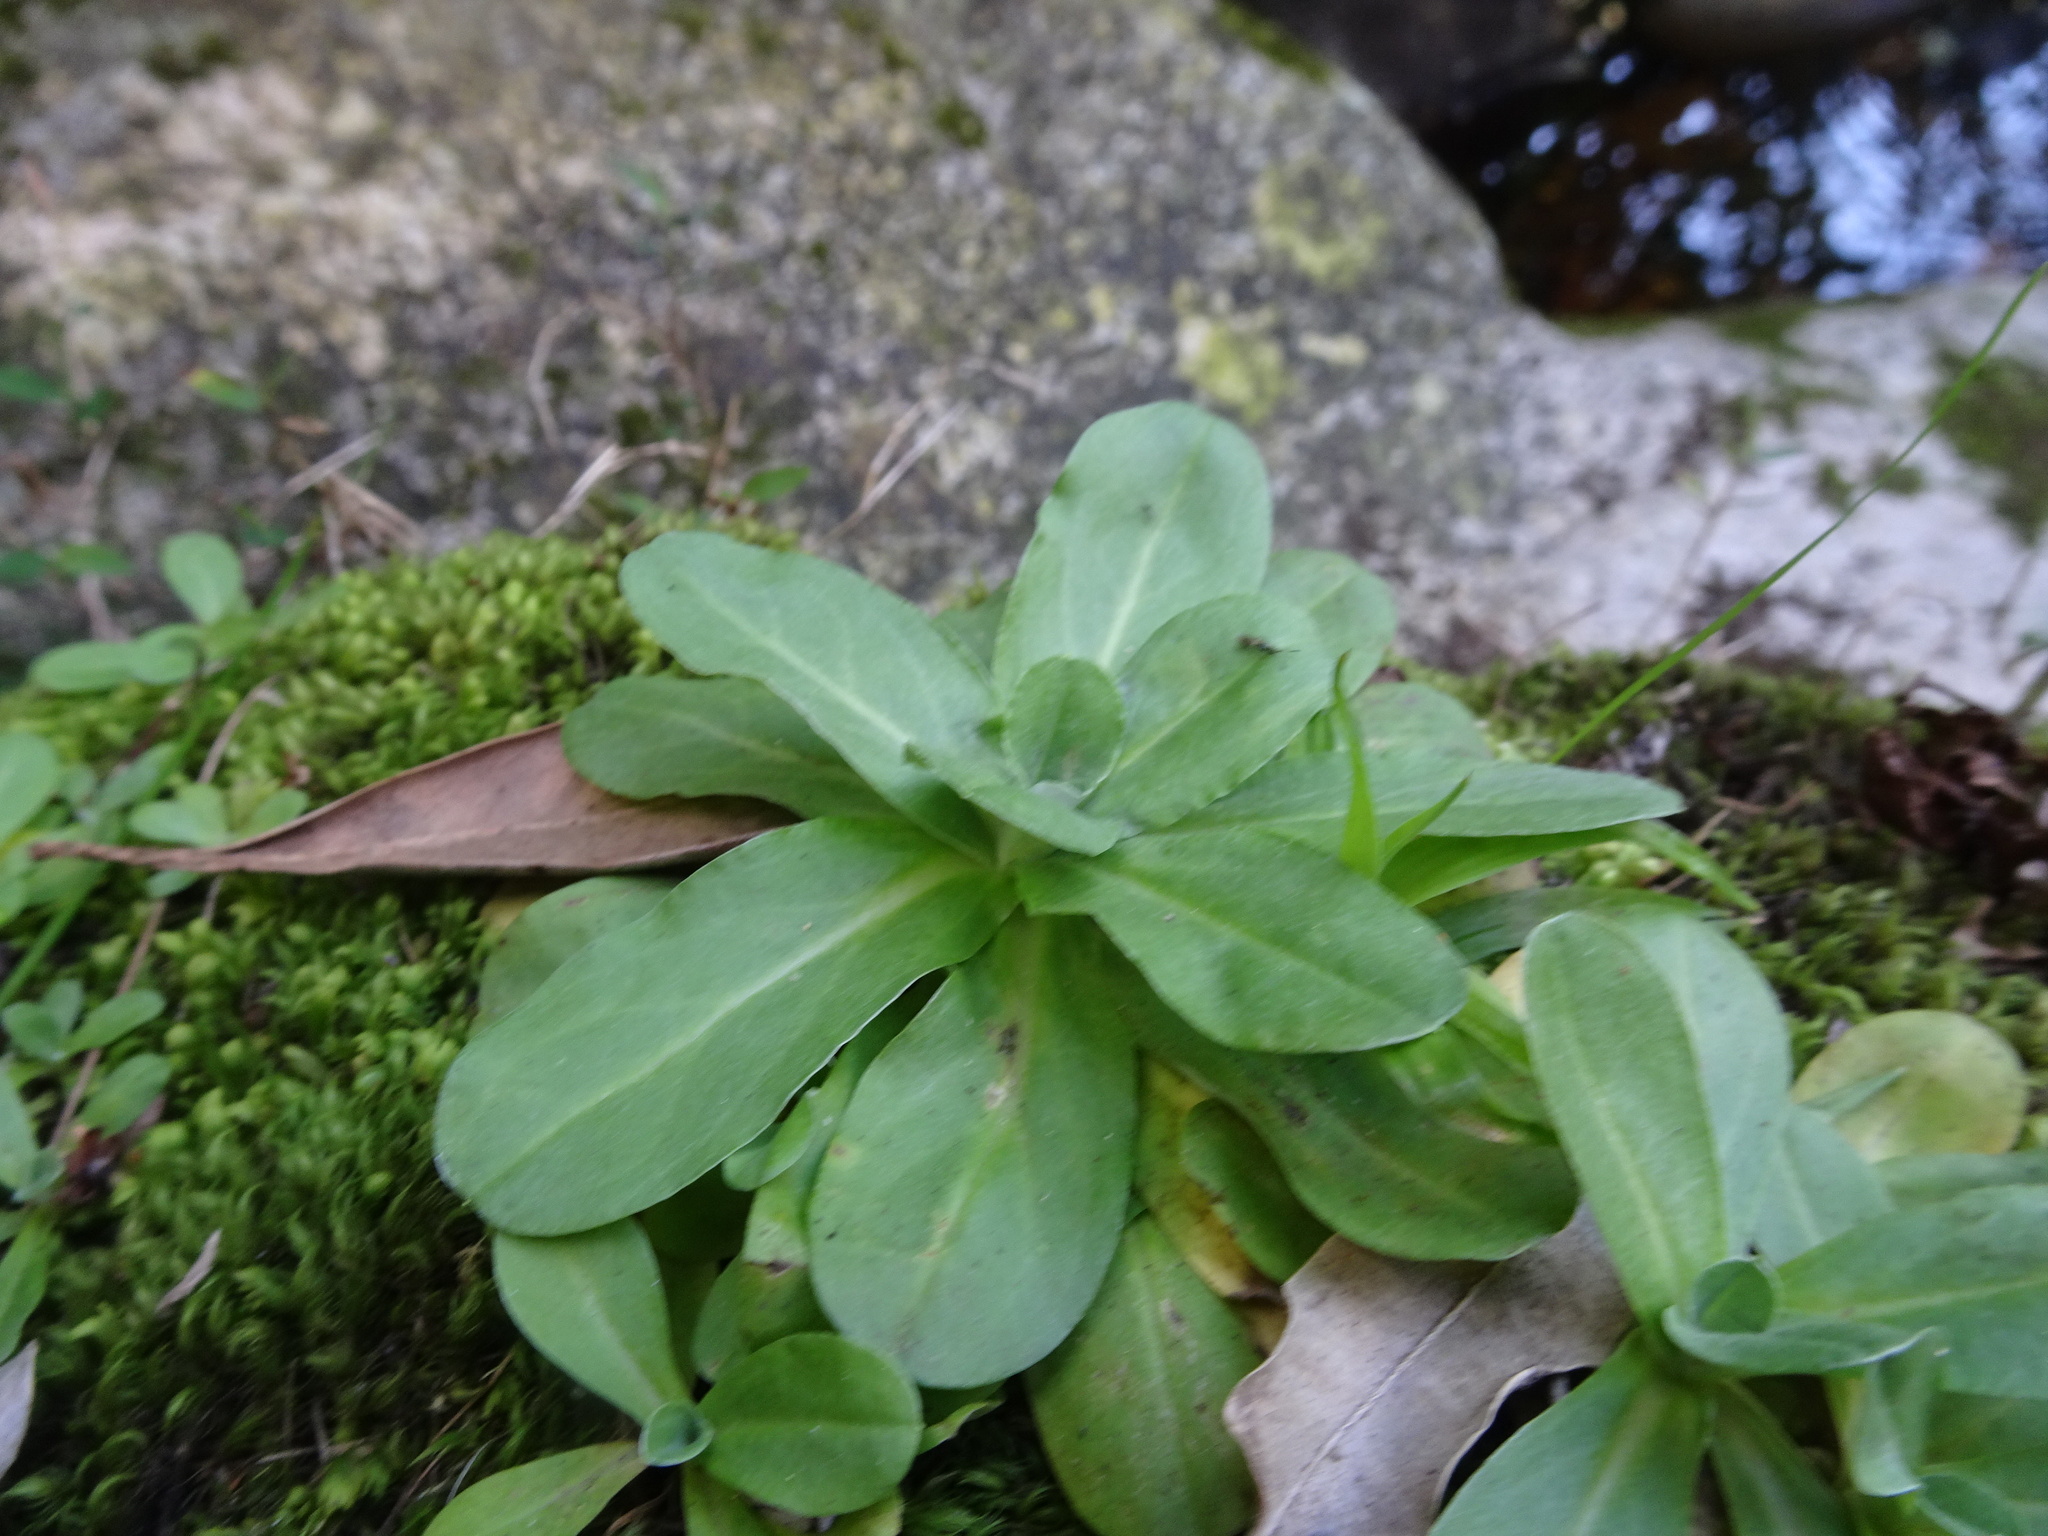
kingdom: Plantae
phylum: Tracheophyta
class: Magnoliopsida
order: Asterales
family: Asteraceae
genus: Gamochaeta
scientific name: Gamochaeta americana
